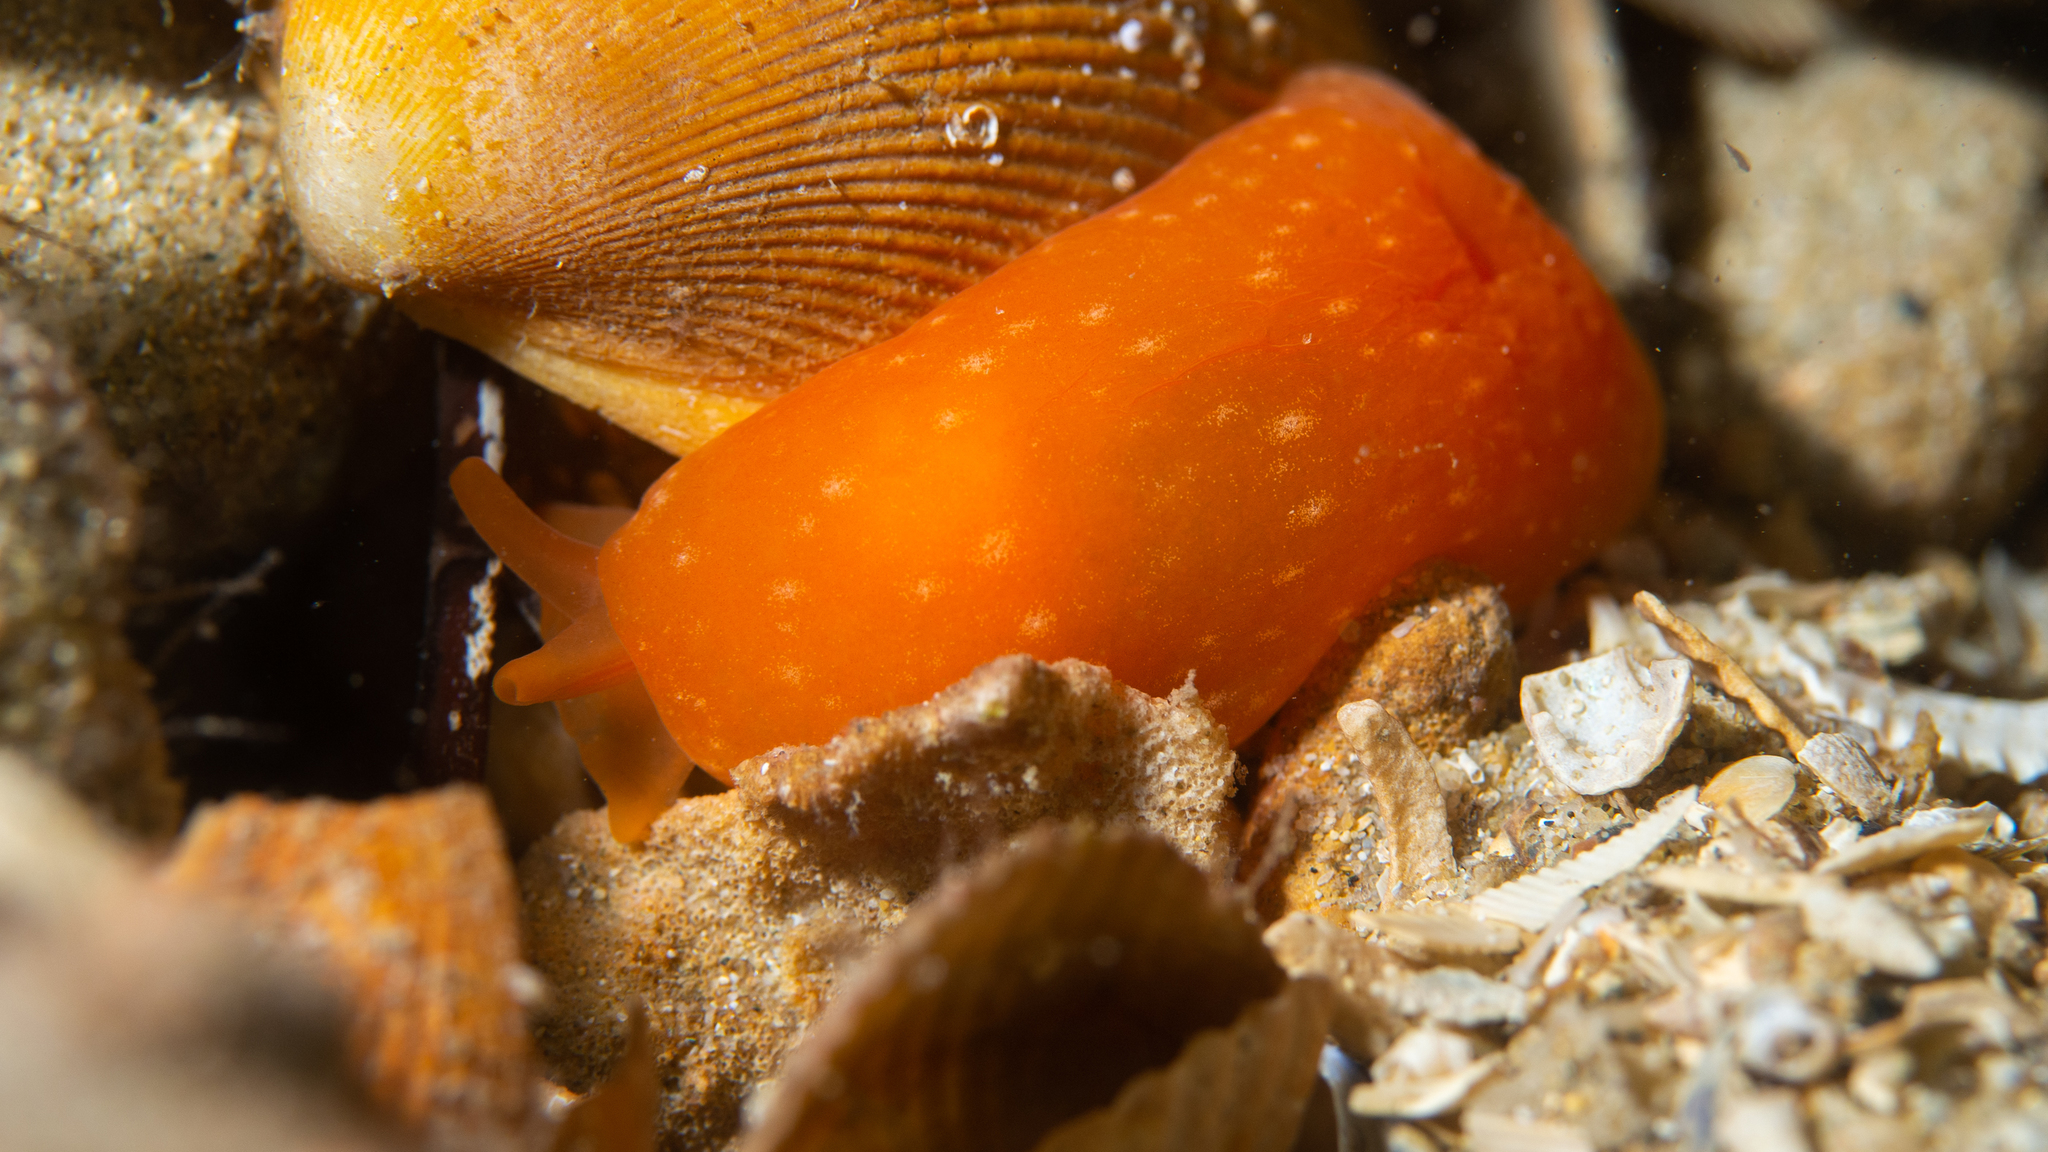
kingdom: Animalia
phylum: Mollusca
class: Gastropoda
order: Pleurobranchida
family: Pleurobranchidae
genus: Berthellina
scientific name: Berthellina citrina
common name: Lemon pleurobranch
